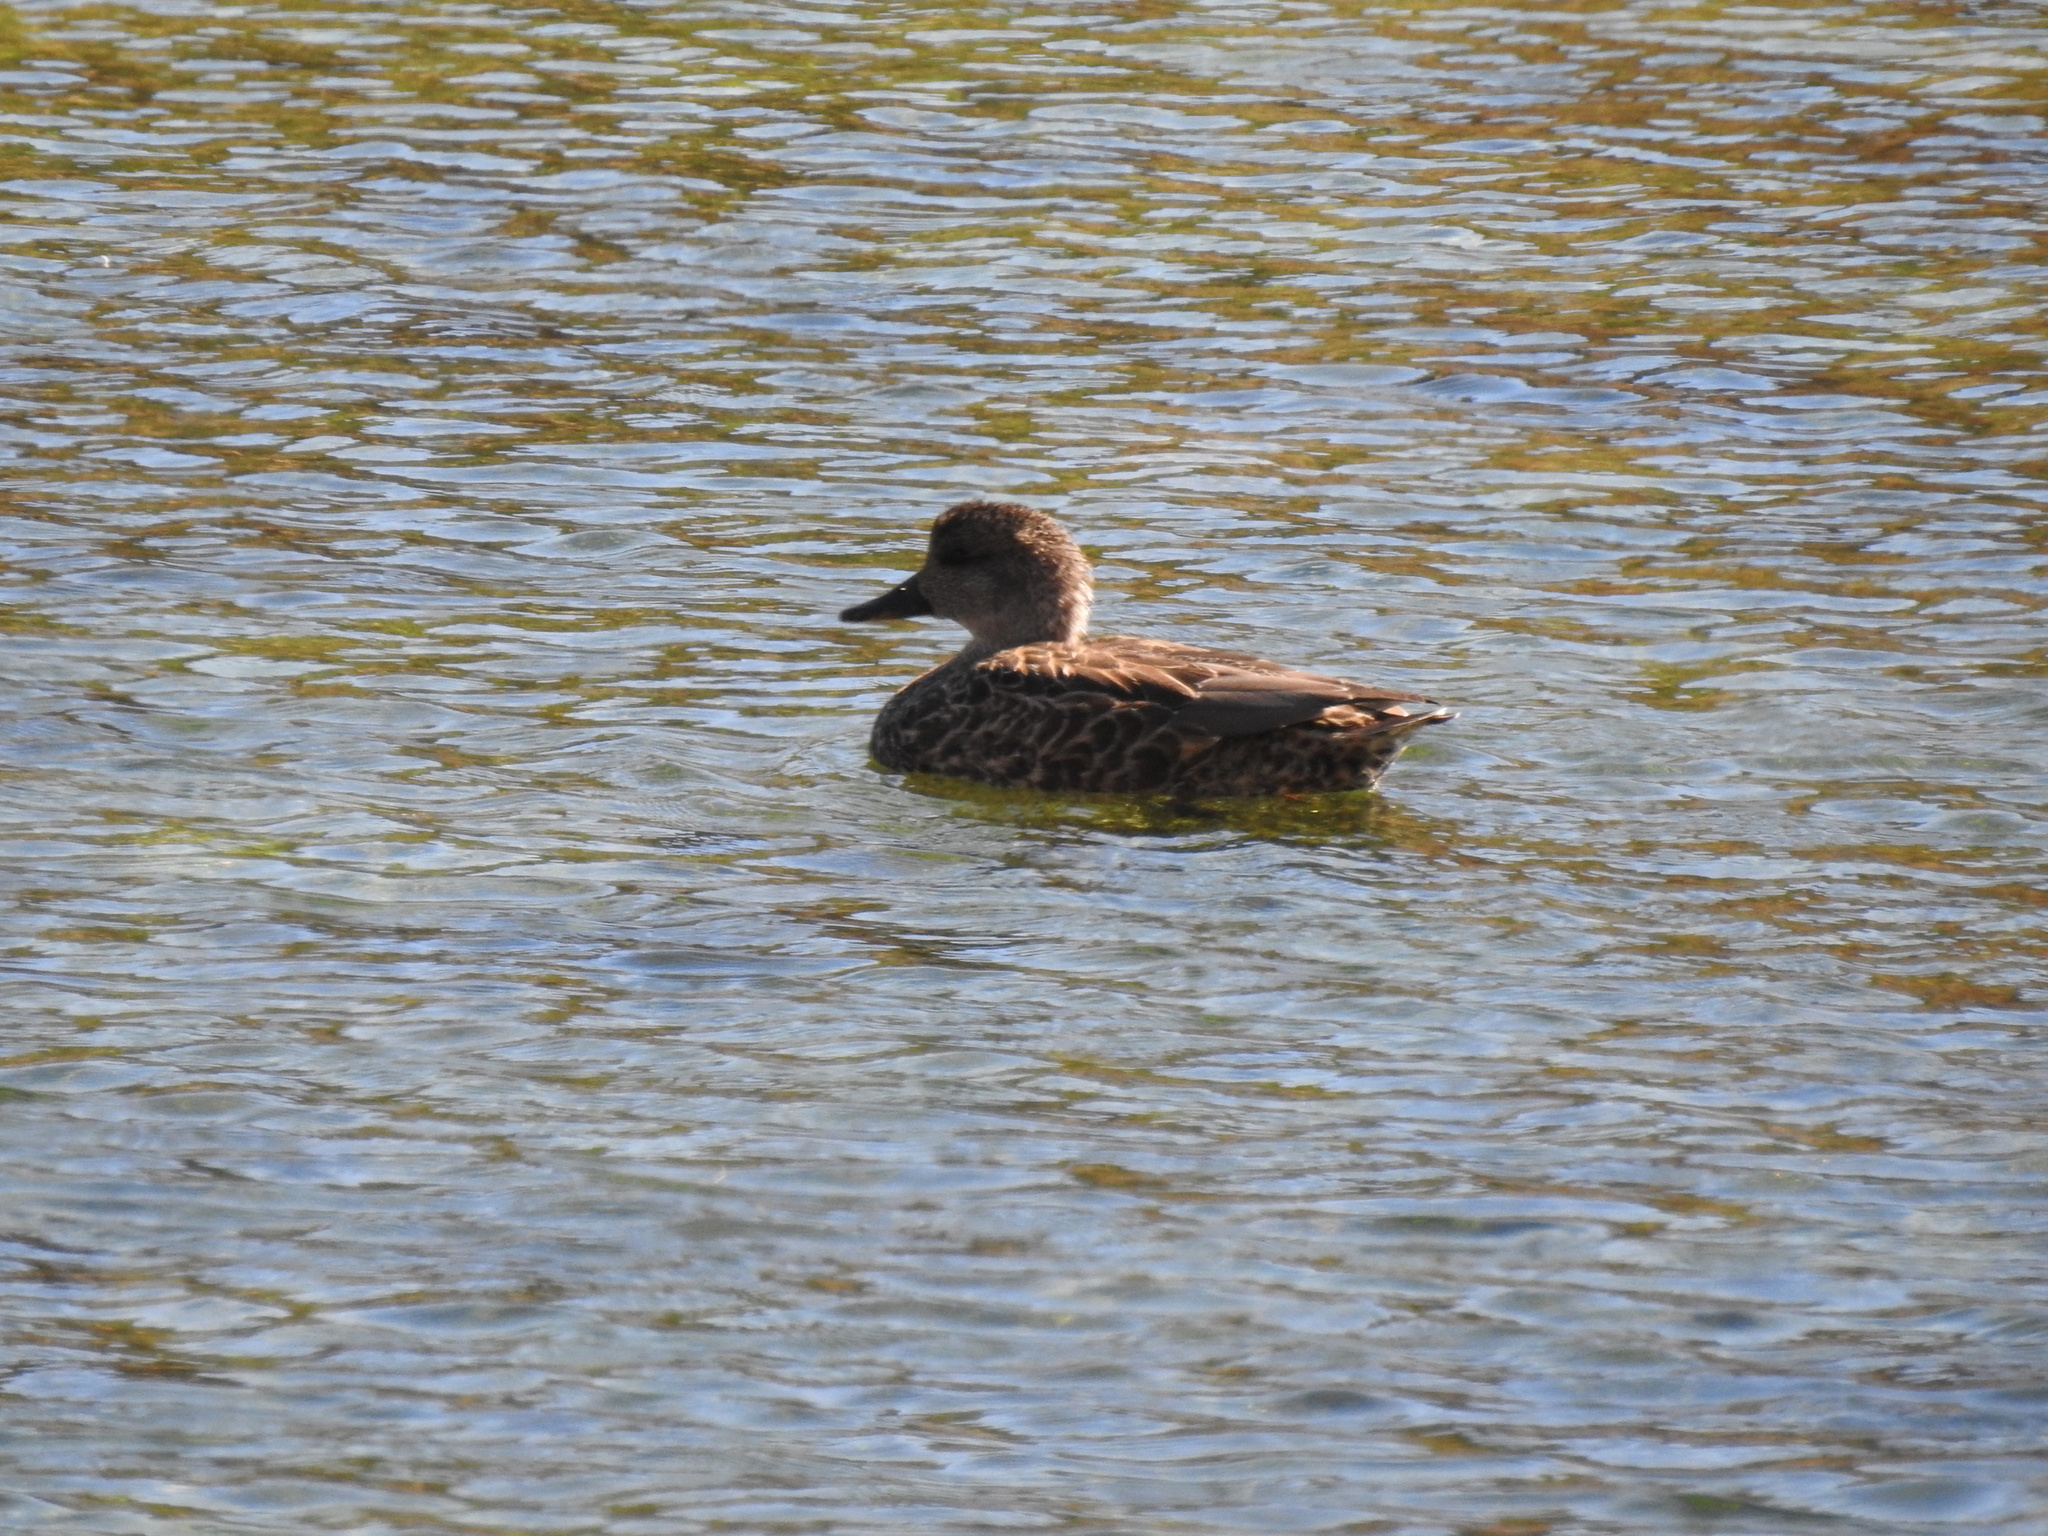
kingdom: Animalia
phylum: Chordata
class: Aves
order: Anseriformes
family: Anatidae
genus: Mareca
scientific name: Mareca strepera
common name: Gadwall
